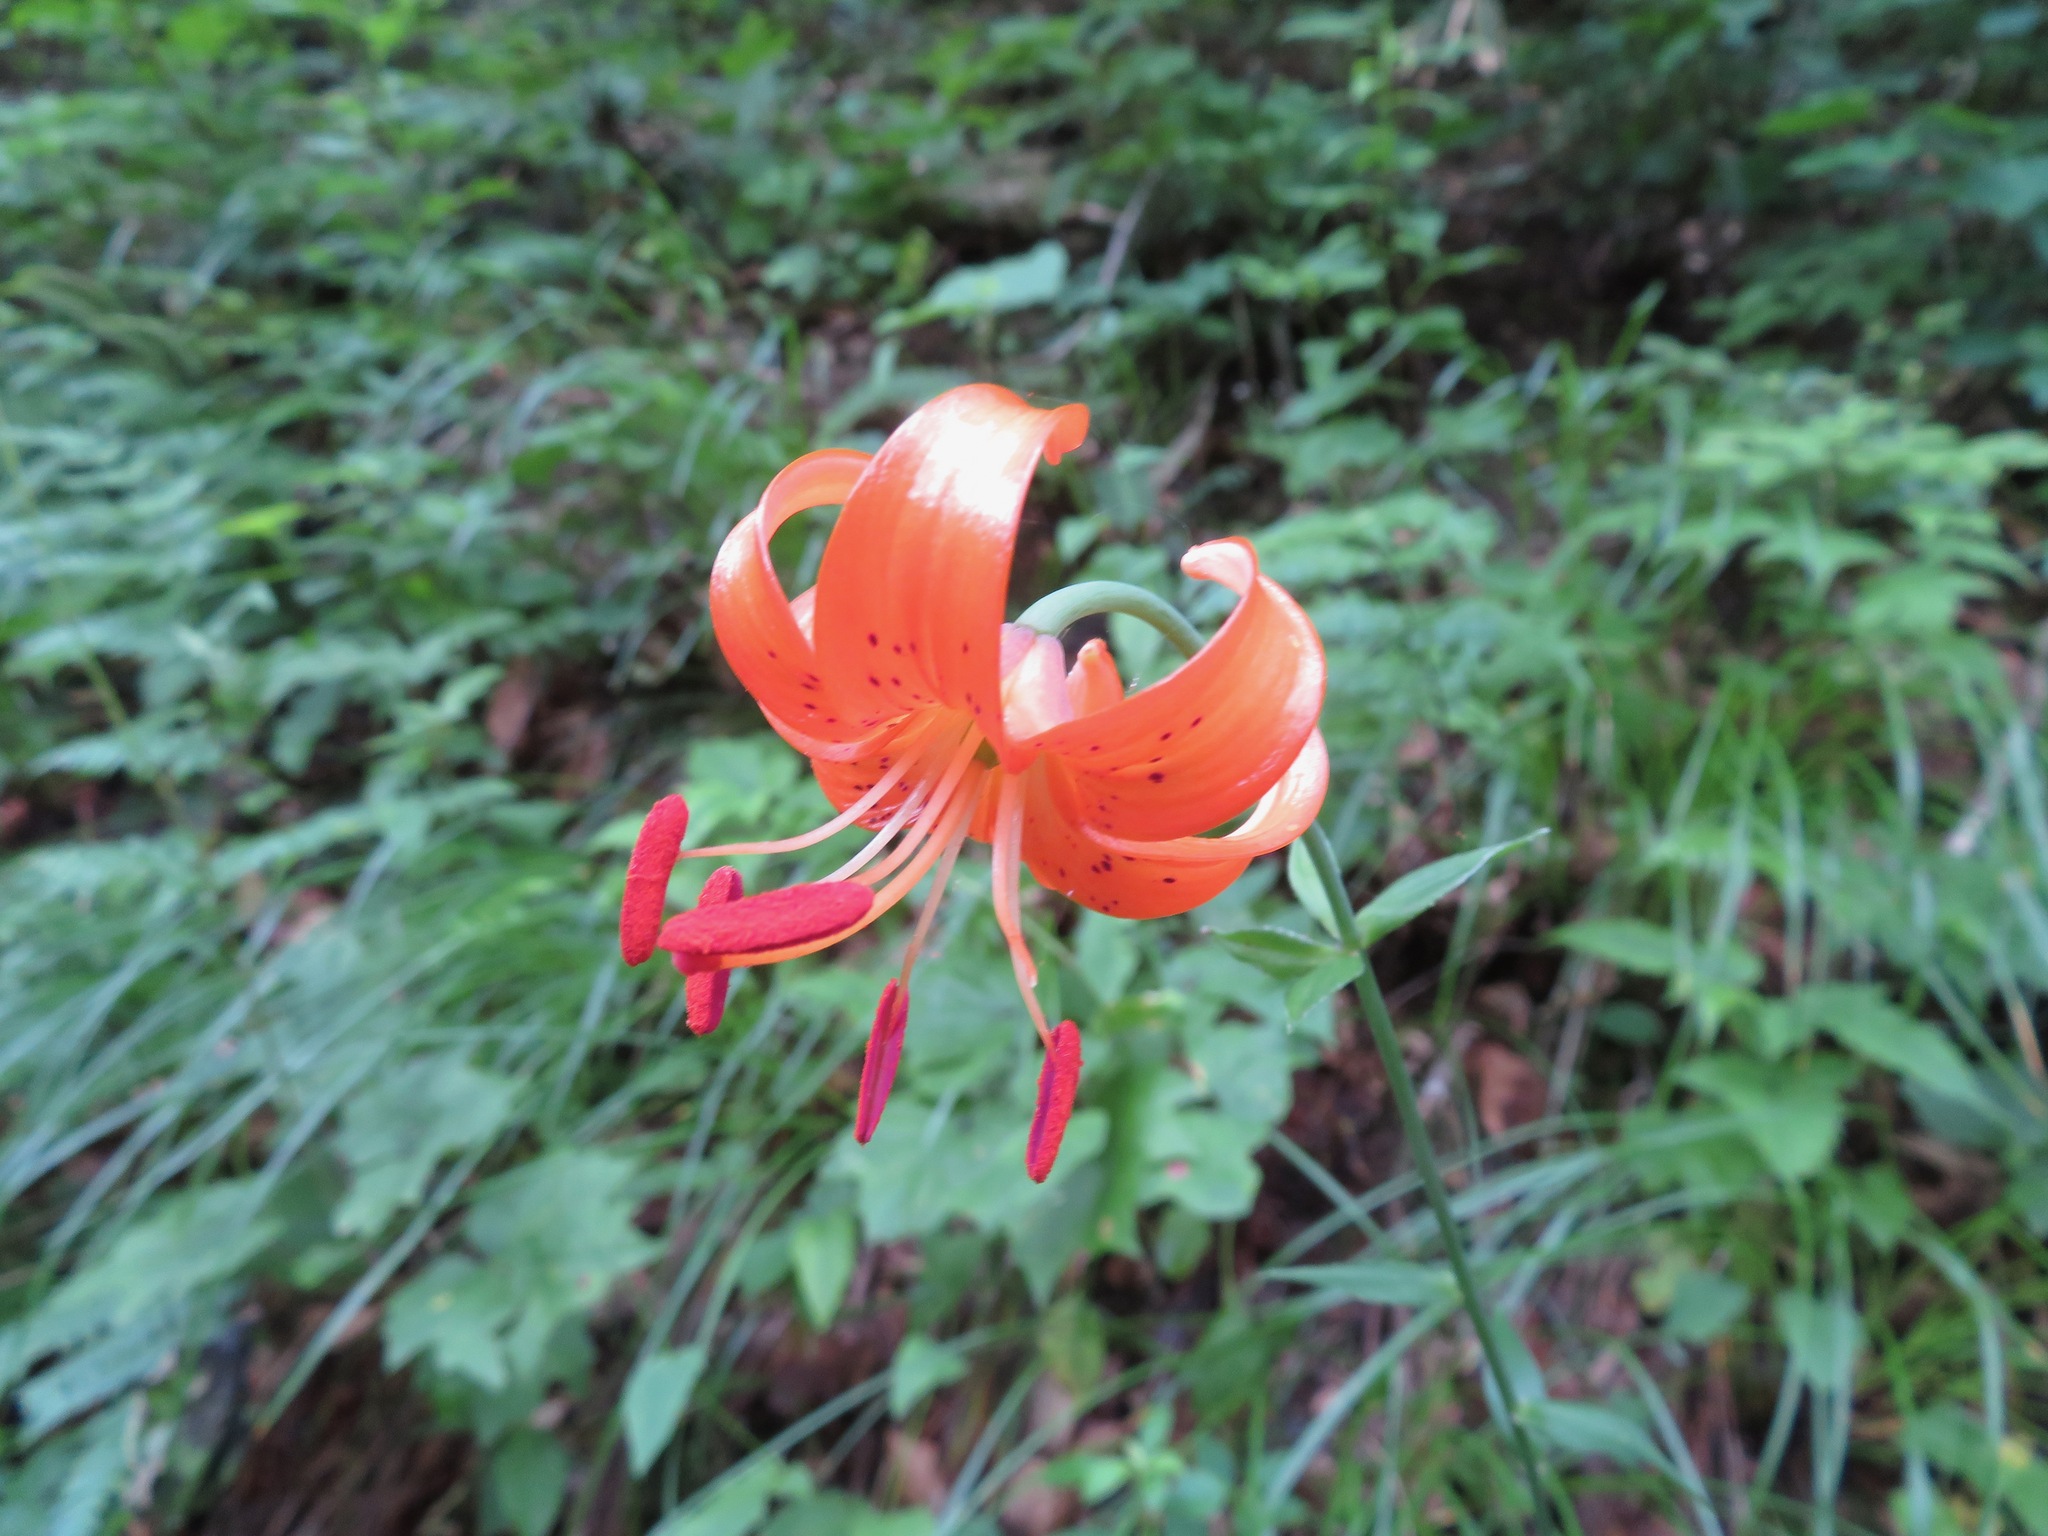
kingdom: Plantae
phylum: Tracheophyta
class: Liliopsida
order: Liliales
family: Liliaceae
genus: Lilium
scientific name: Lilium medeoloides
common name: Wheel lily
